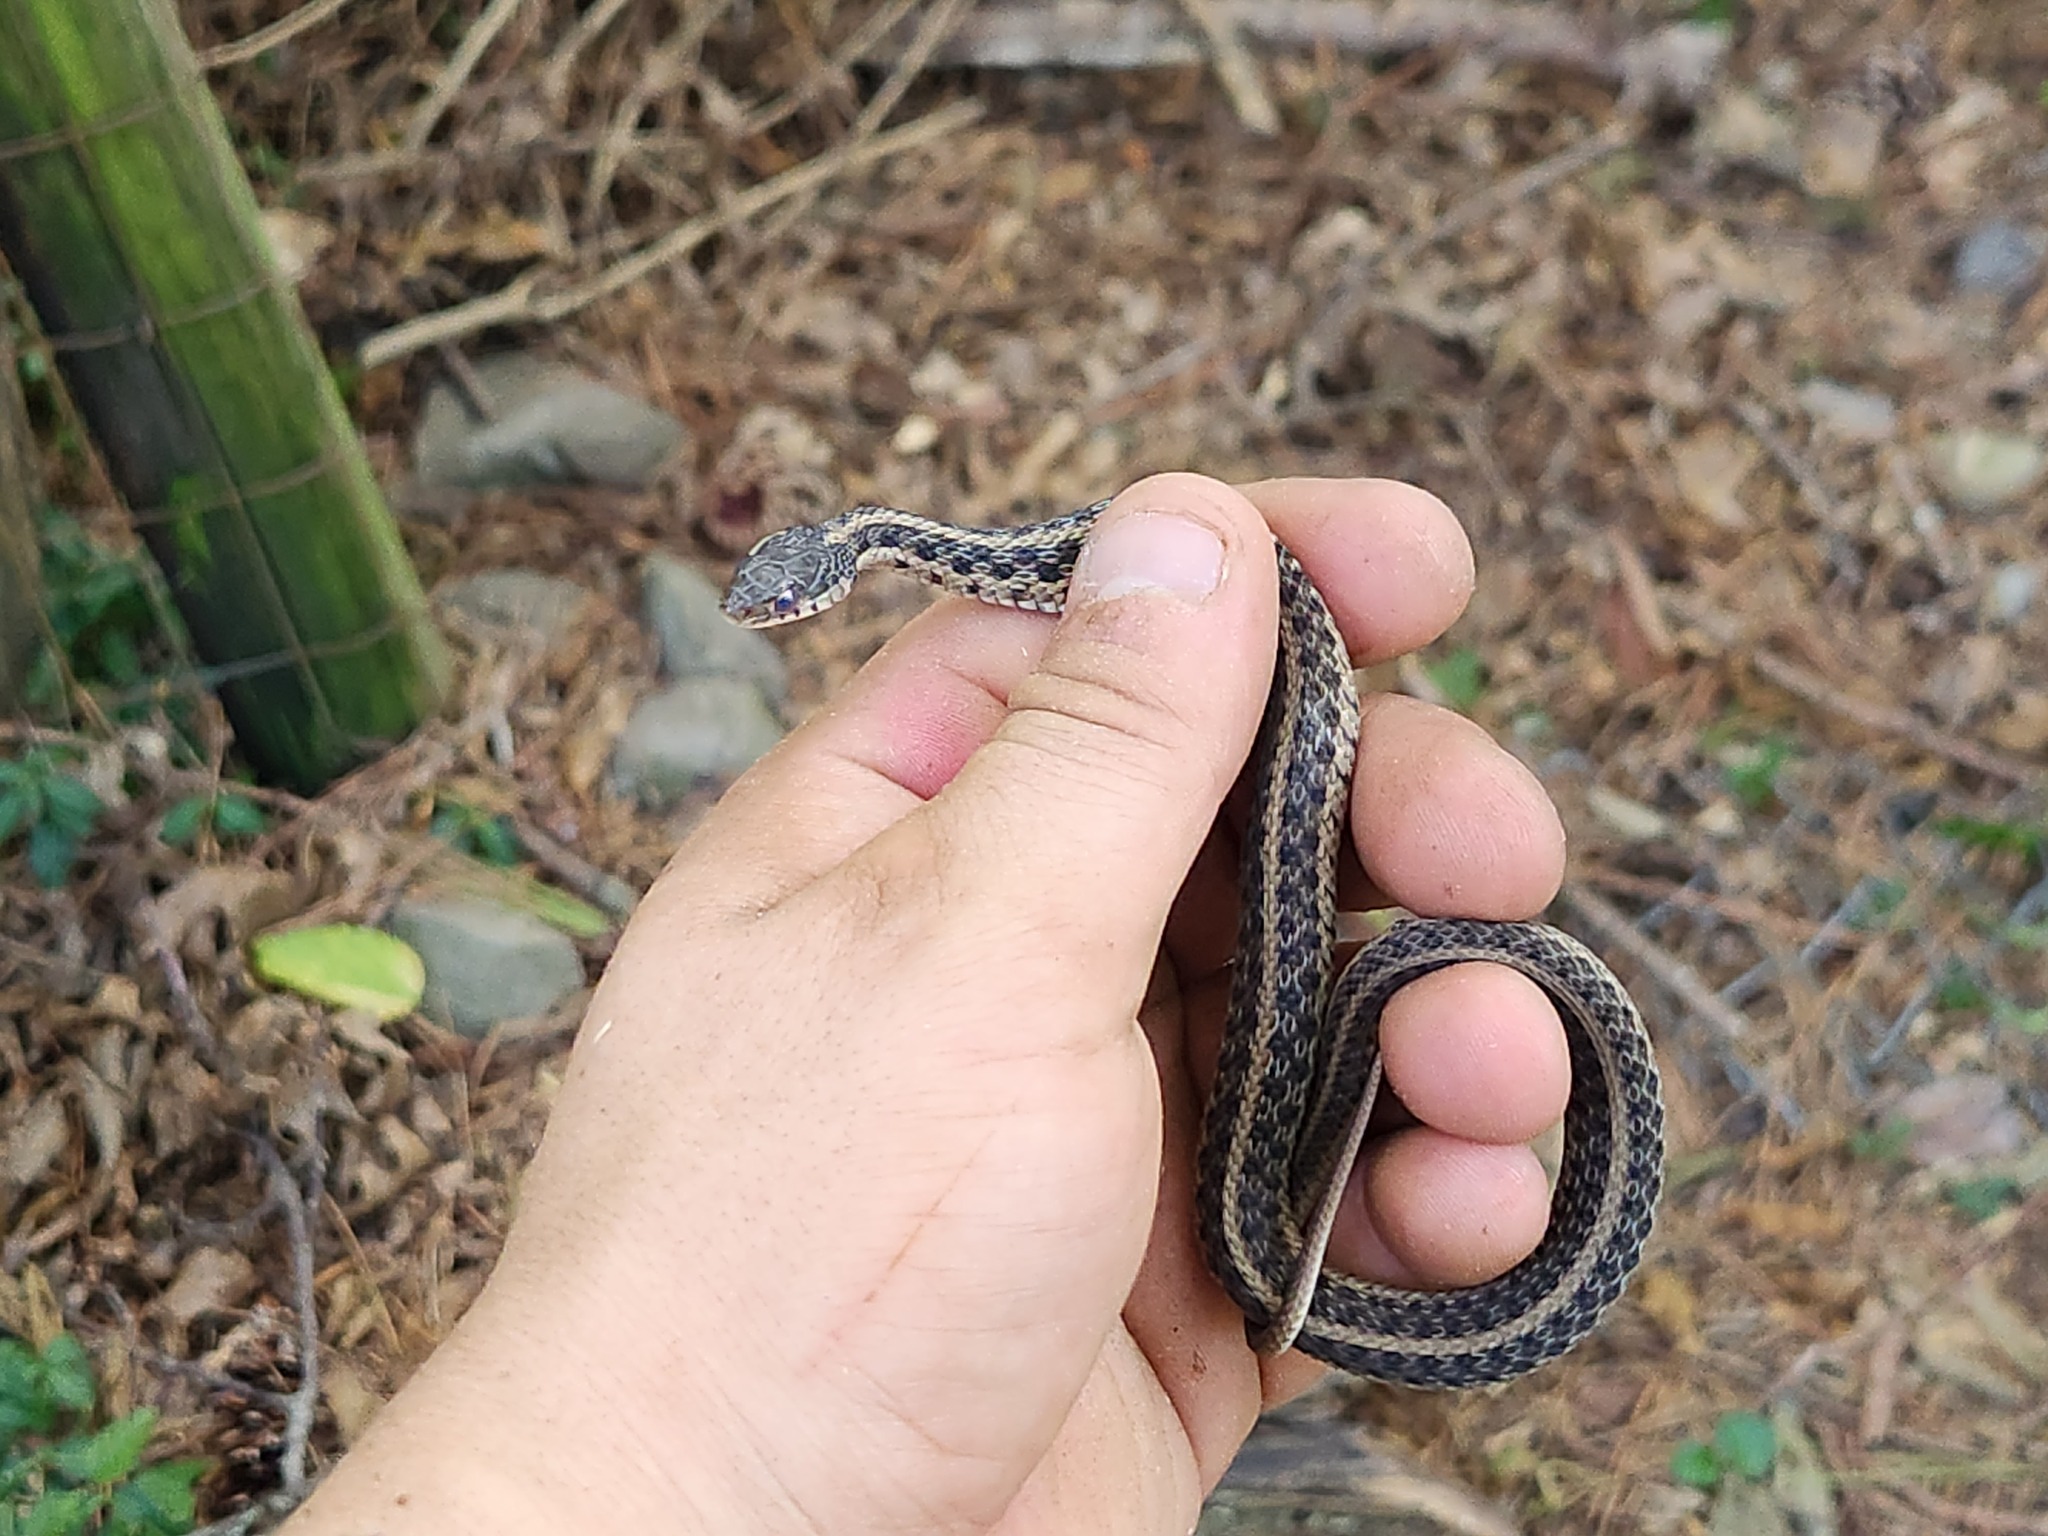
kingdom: Animalia
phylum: Chordata
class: Squamata
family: Colubridae
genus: Thamnophis
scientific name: Thamnophis sirtalis
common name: Common garter snake
